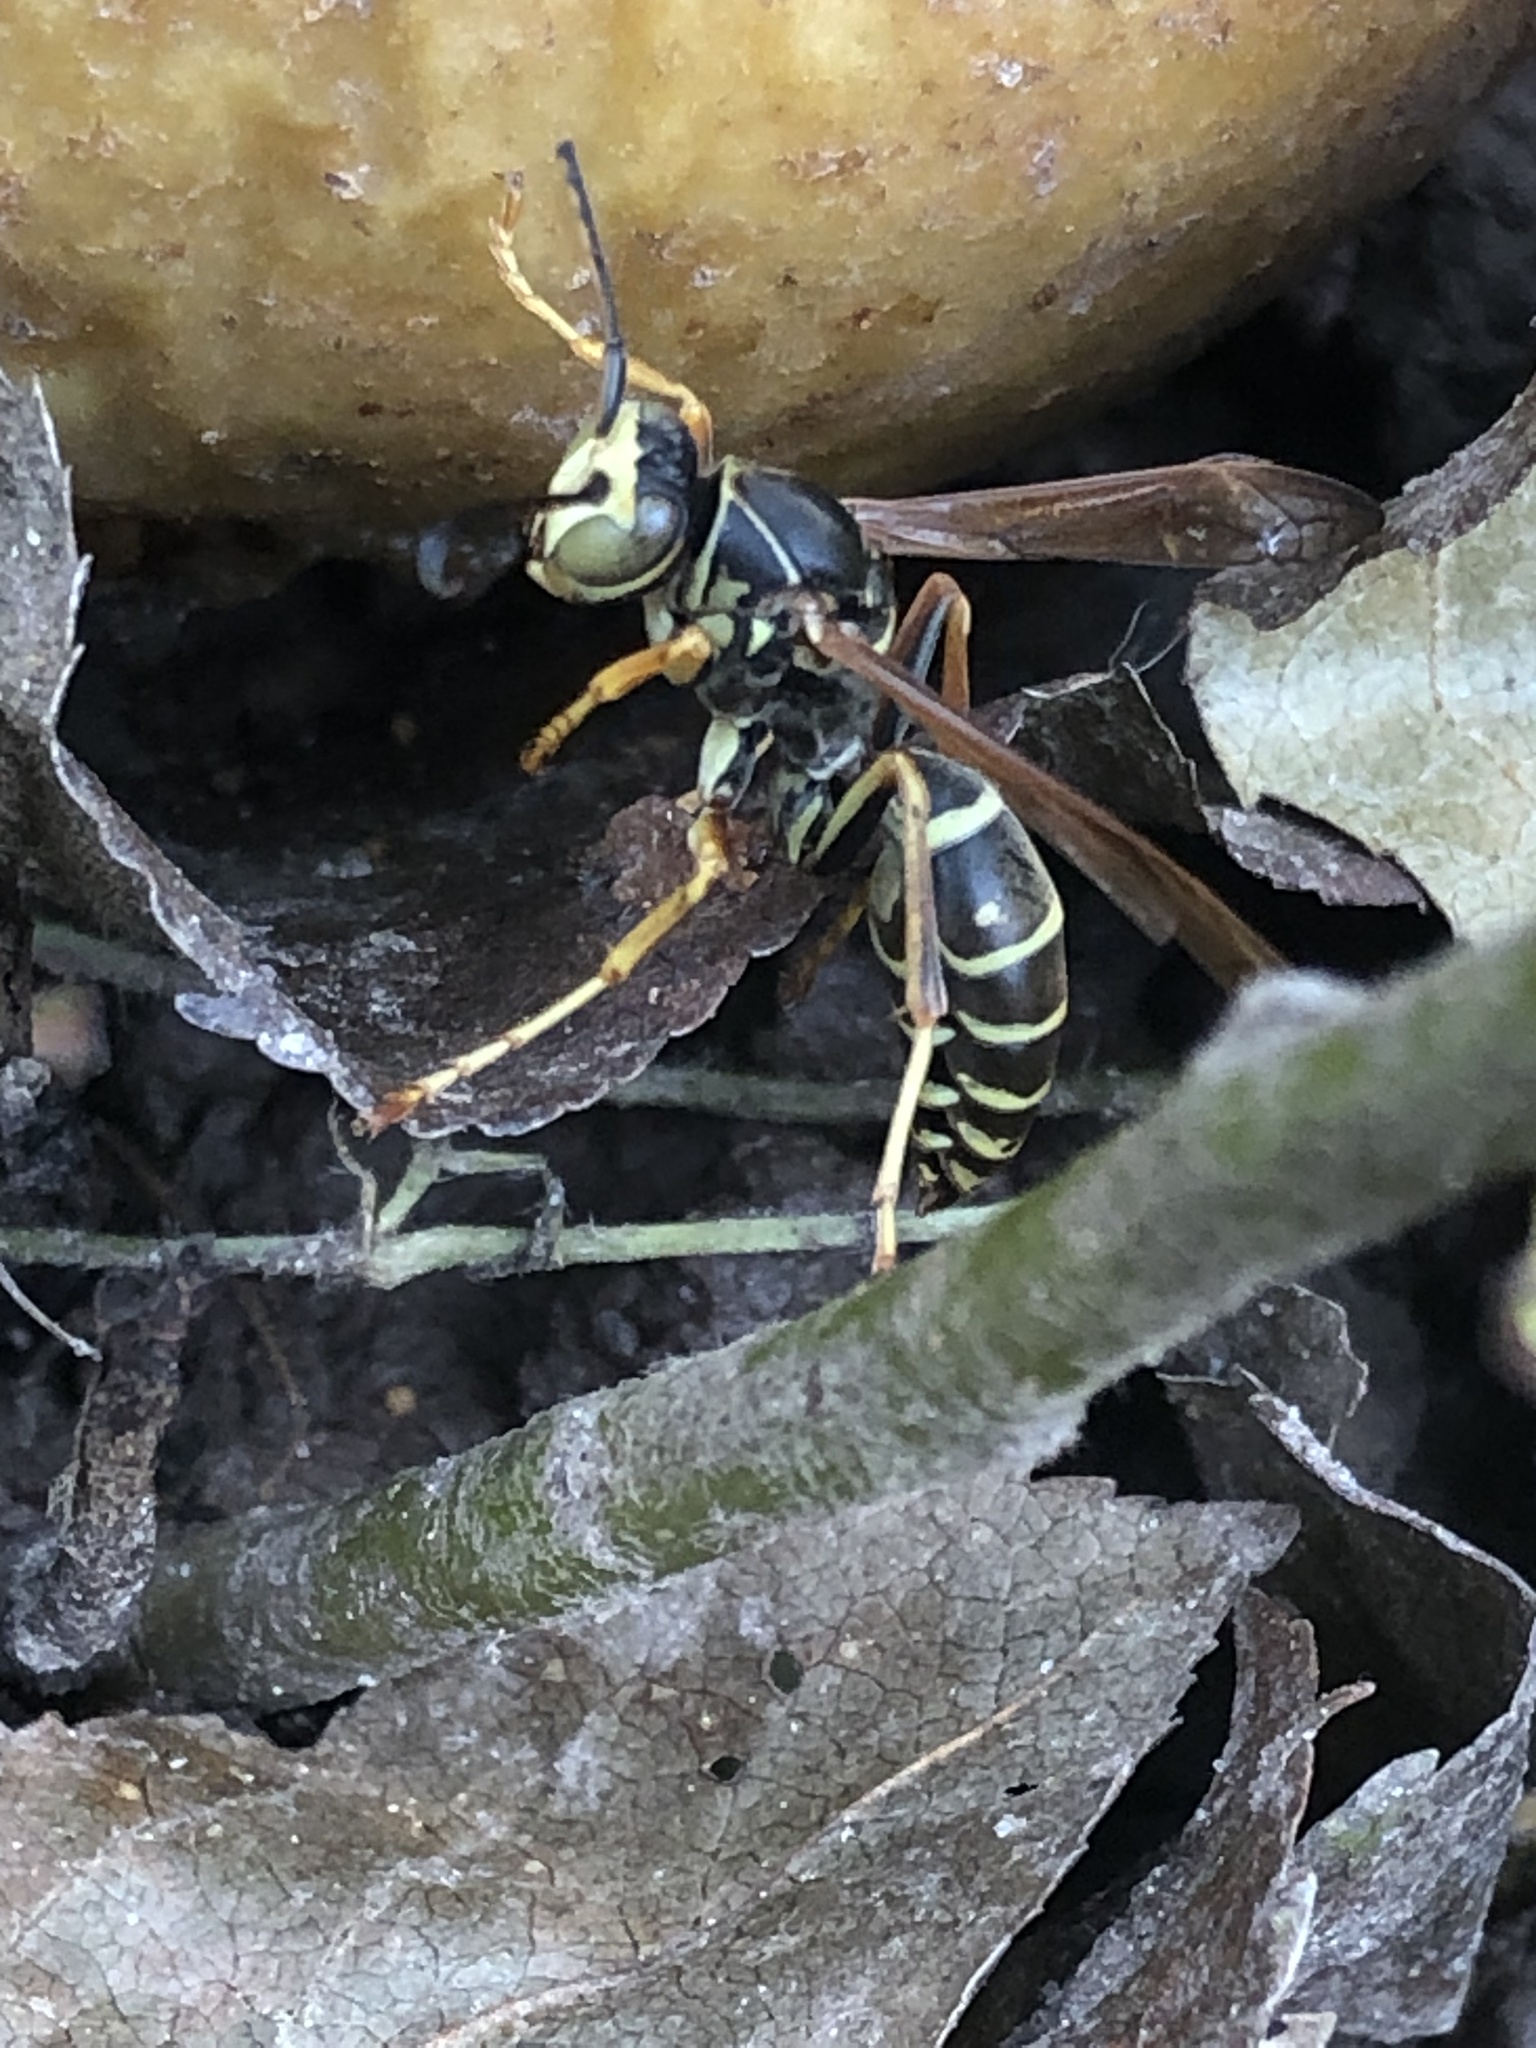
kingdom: Animalia
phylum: Arthropoda
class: Insecta
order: Hymenoptera
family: Eumenidae
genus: Polistes
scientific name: Polistes fuscatus
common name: Dark paper wasp
